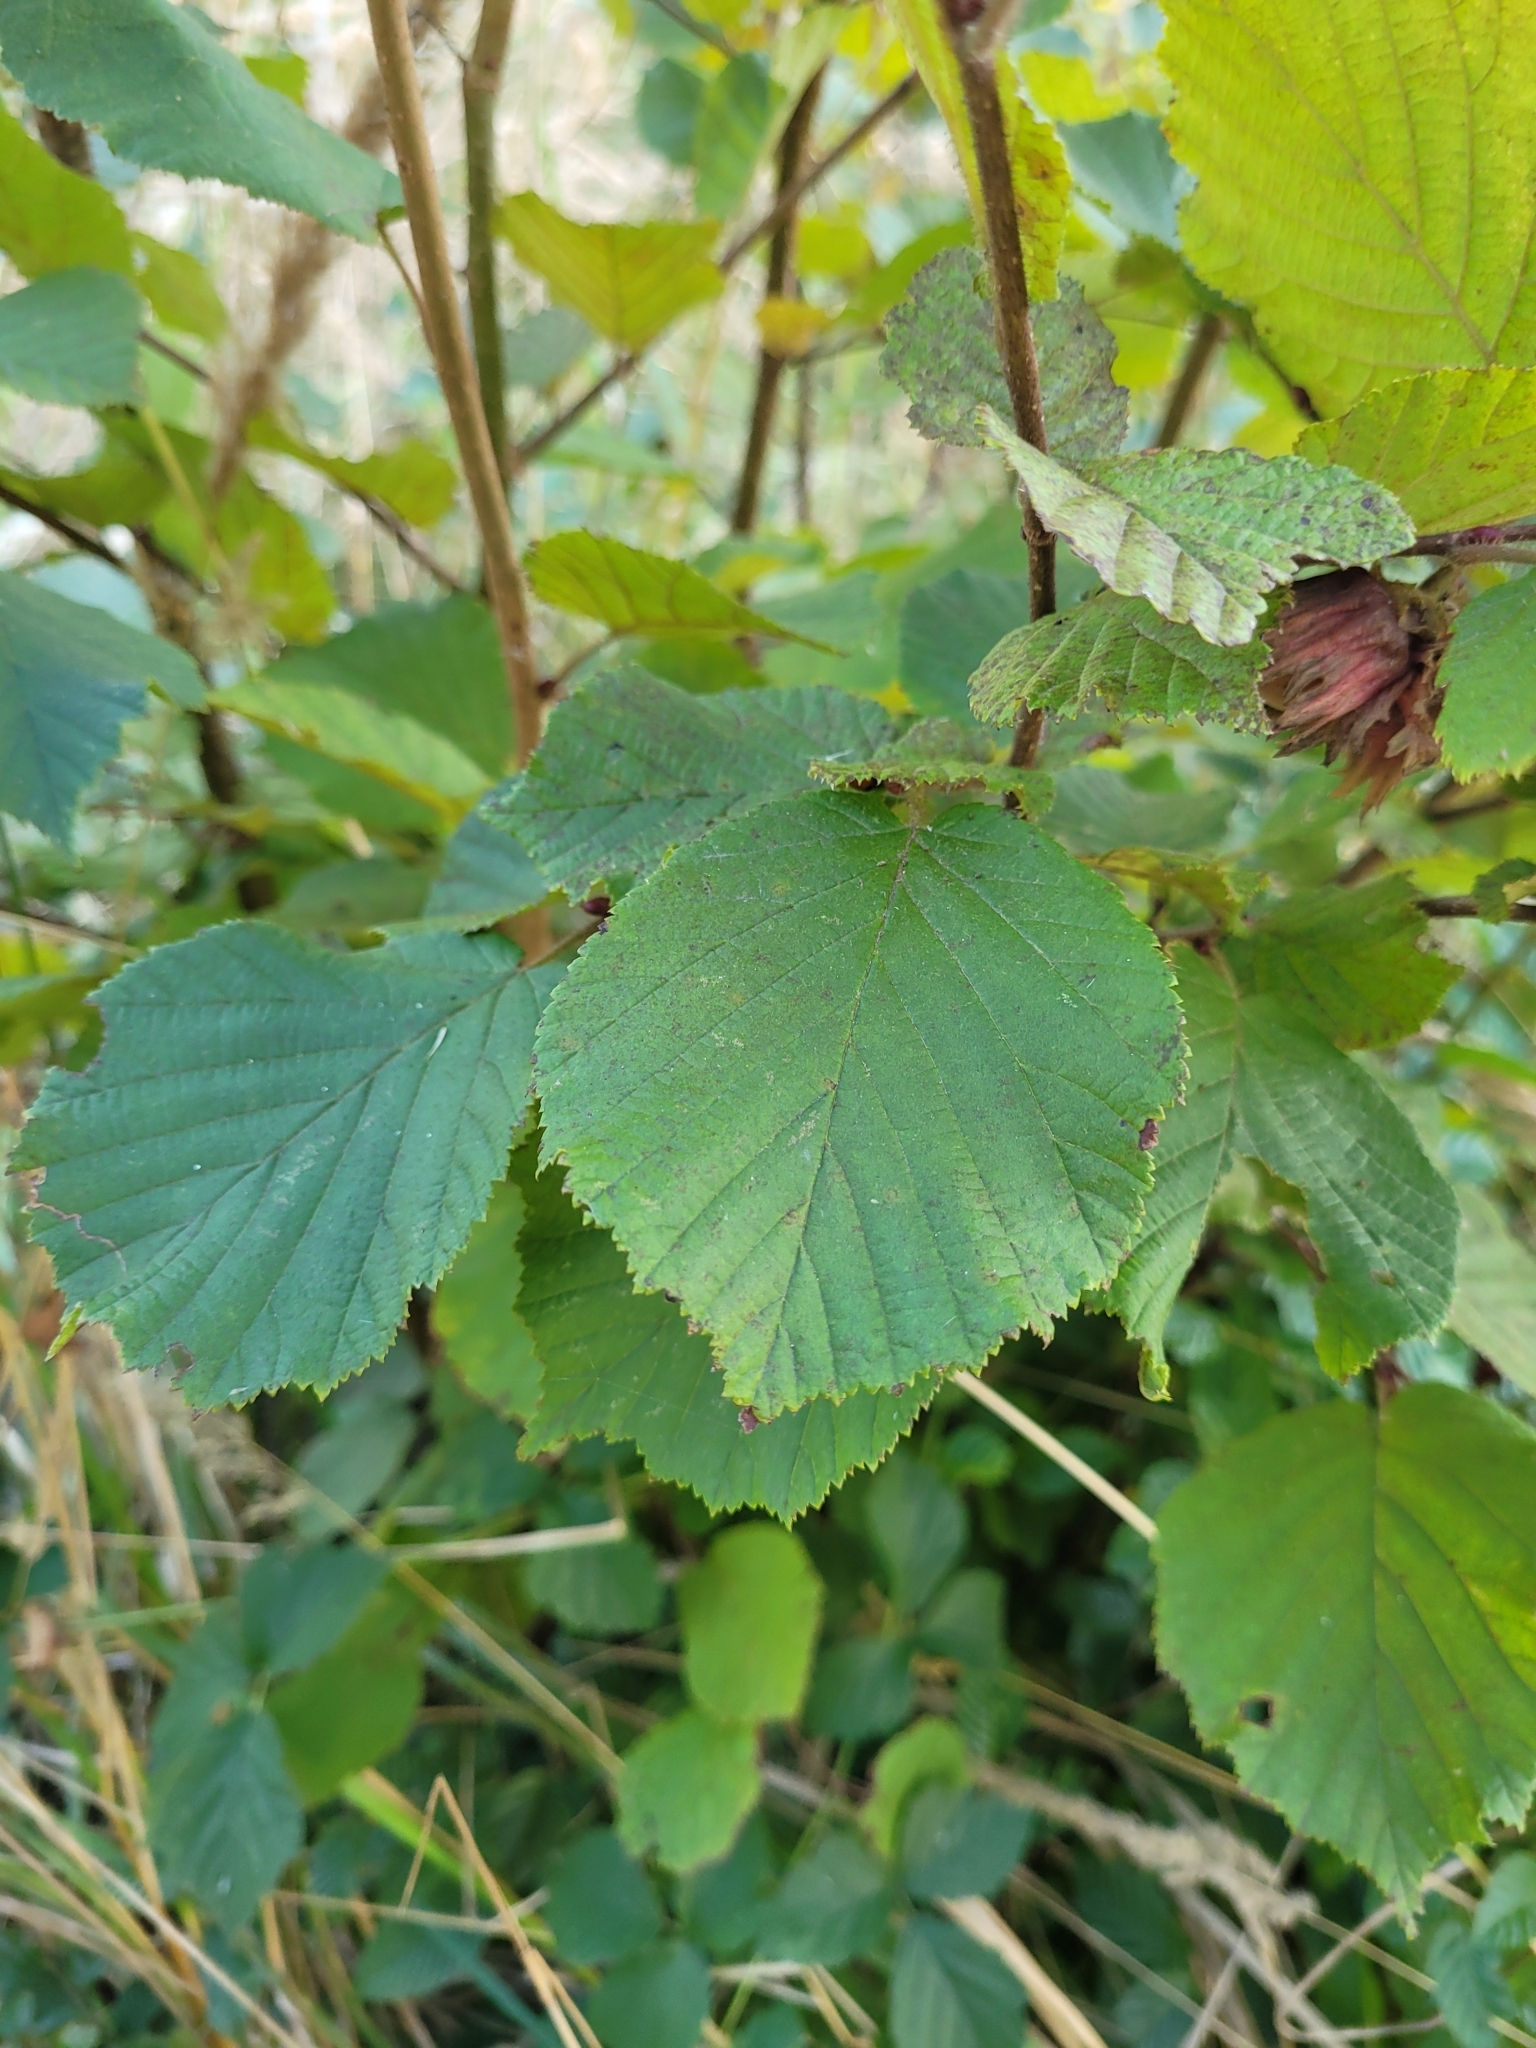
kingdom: Plantae
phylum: Tracheophyta
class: Magnoliopsida
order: Fagales
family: Betulaceae
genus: Corylus
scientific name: Corylus avellana
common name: European hazel
